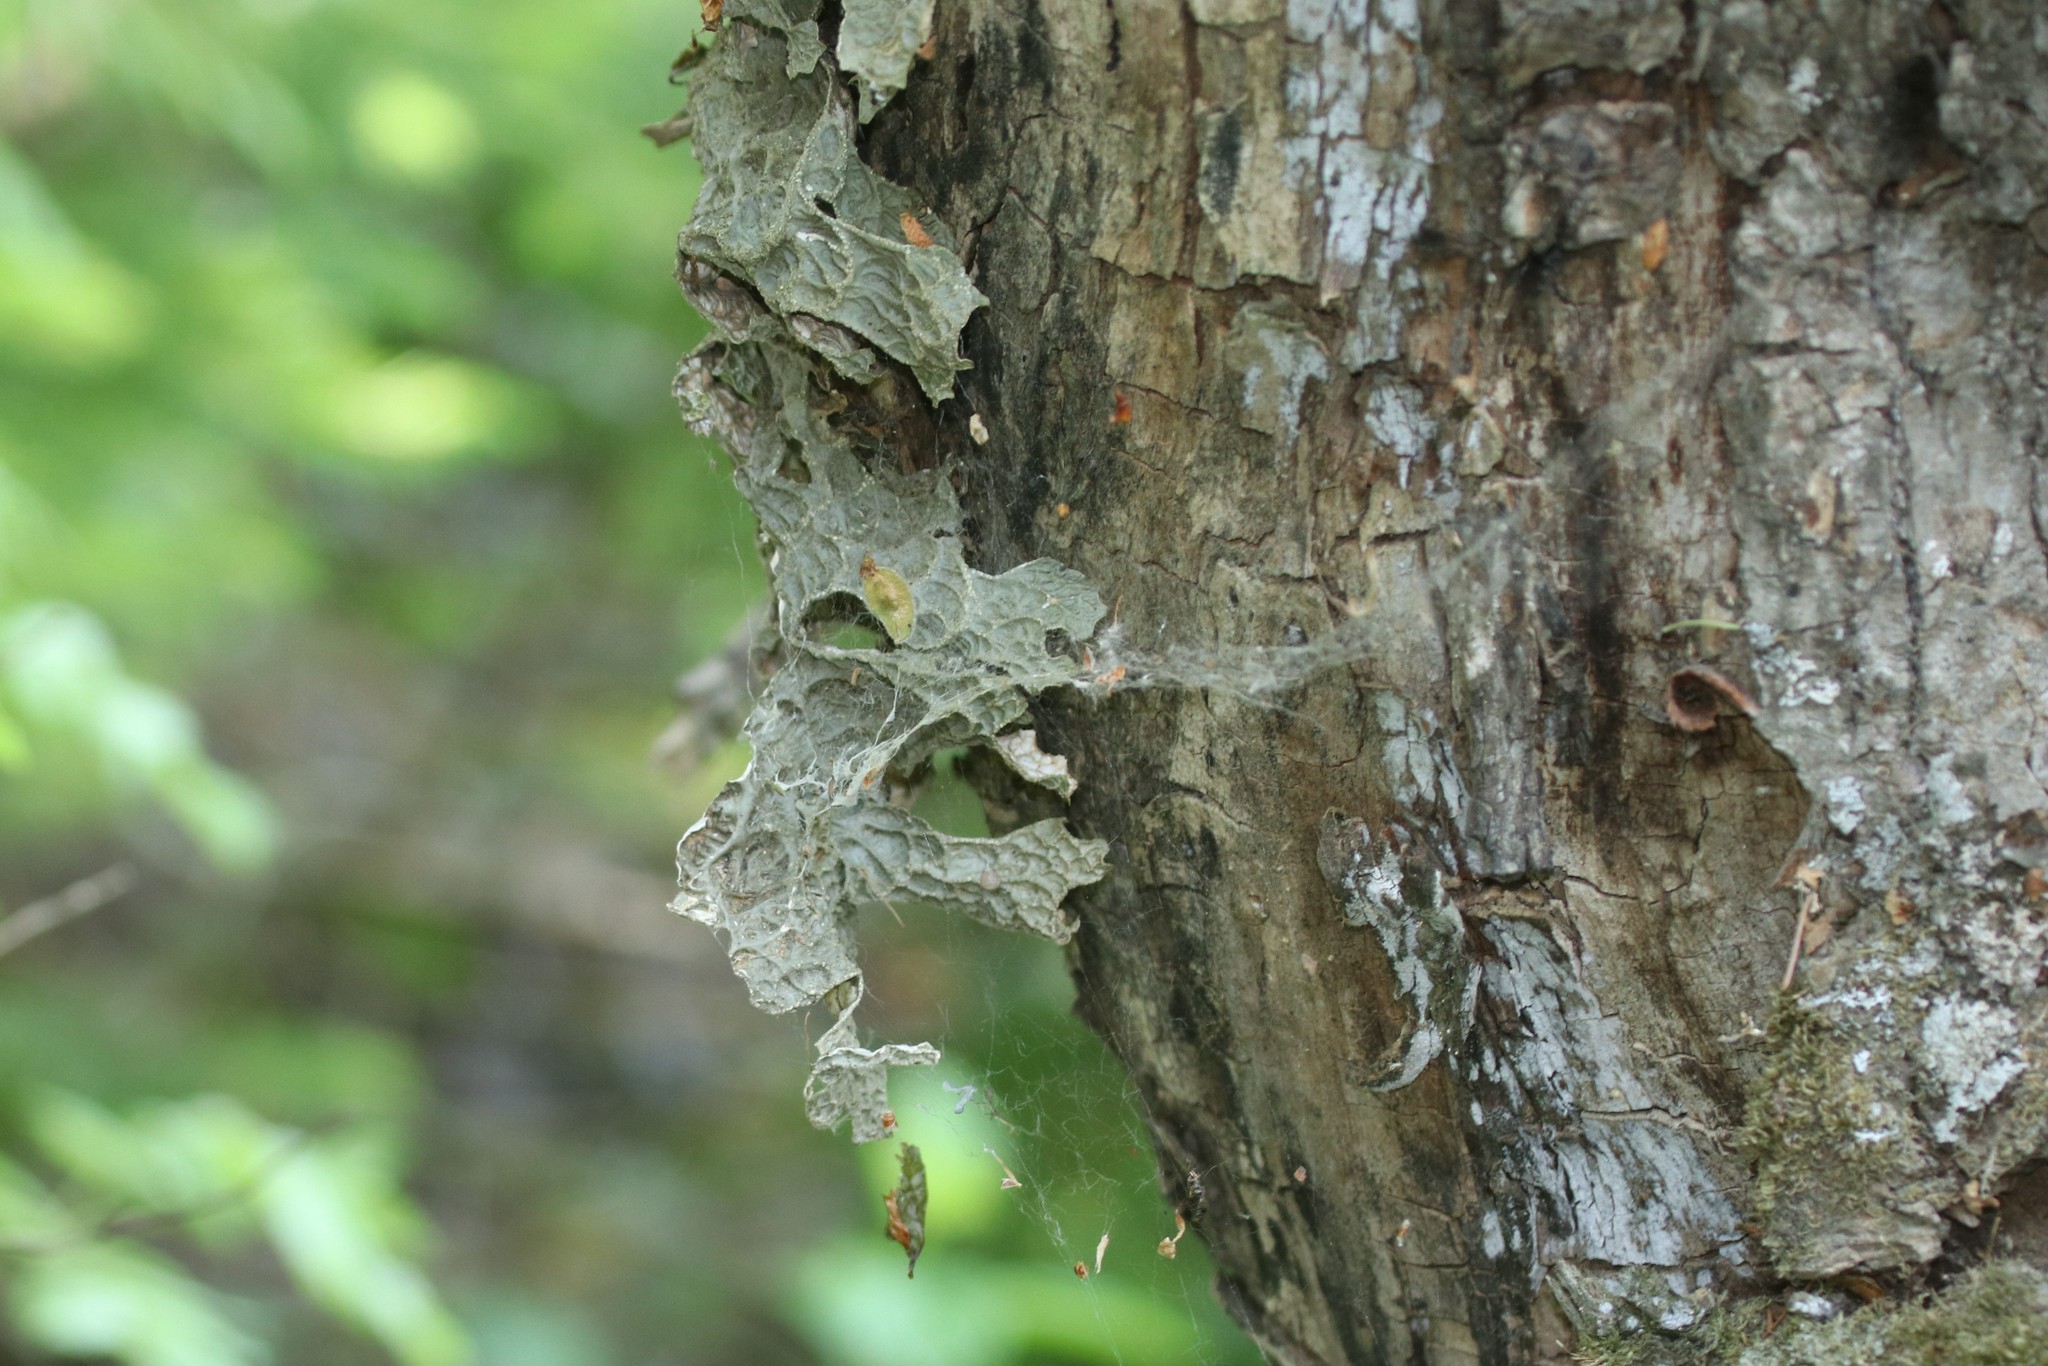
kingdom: Fungi
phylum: Ascomycota
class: Lecanoromycetes
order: Peltigerales
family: Lobariaceae
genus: Lobaria
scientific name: Lobaria pulmonaria
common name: Lungwort
